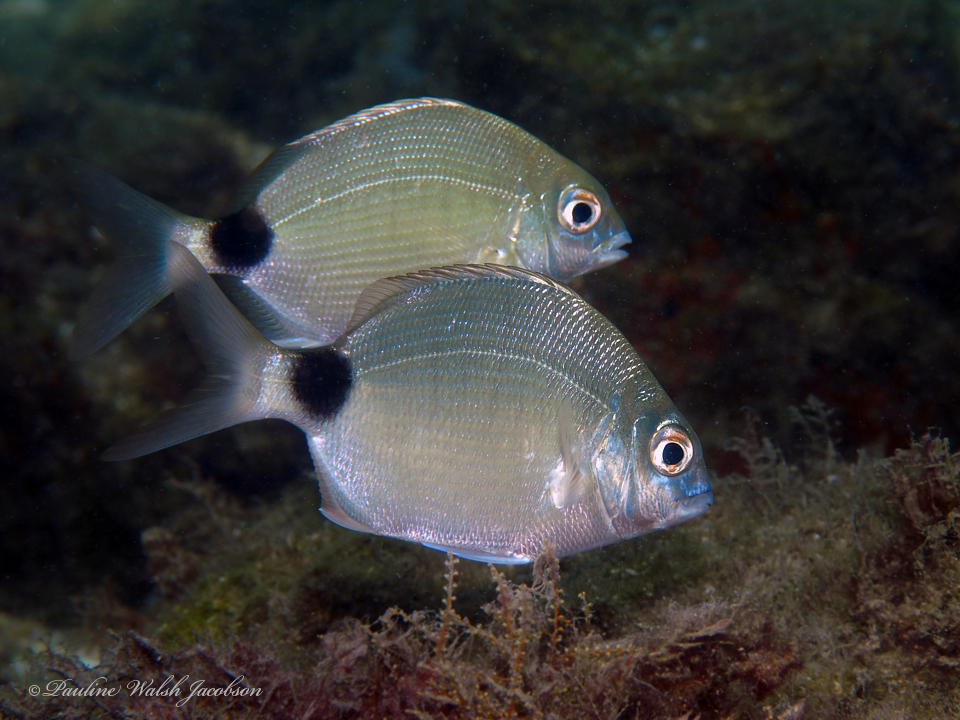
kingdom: Animalia
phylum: Chordata
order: Perciformes
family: Sparidae
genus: Diplodus
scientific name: Diplodus holbrookii
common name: Porgy
